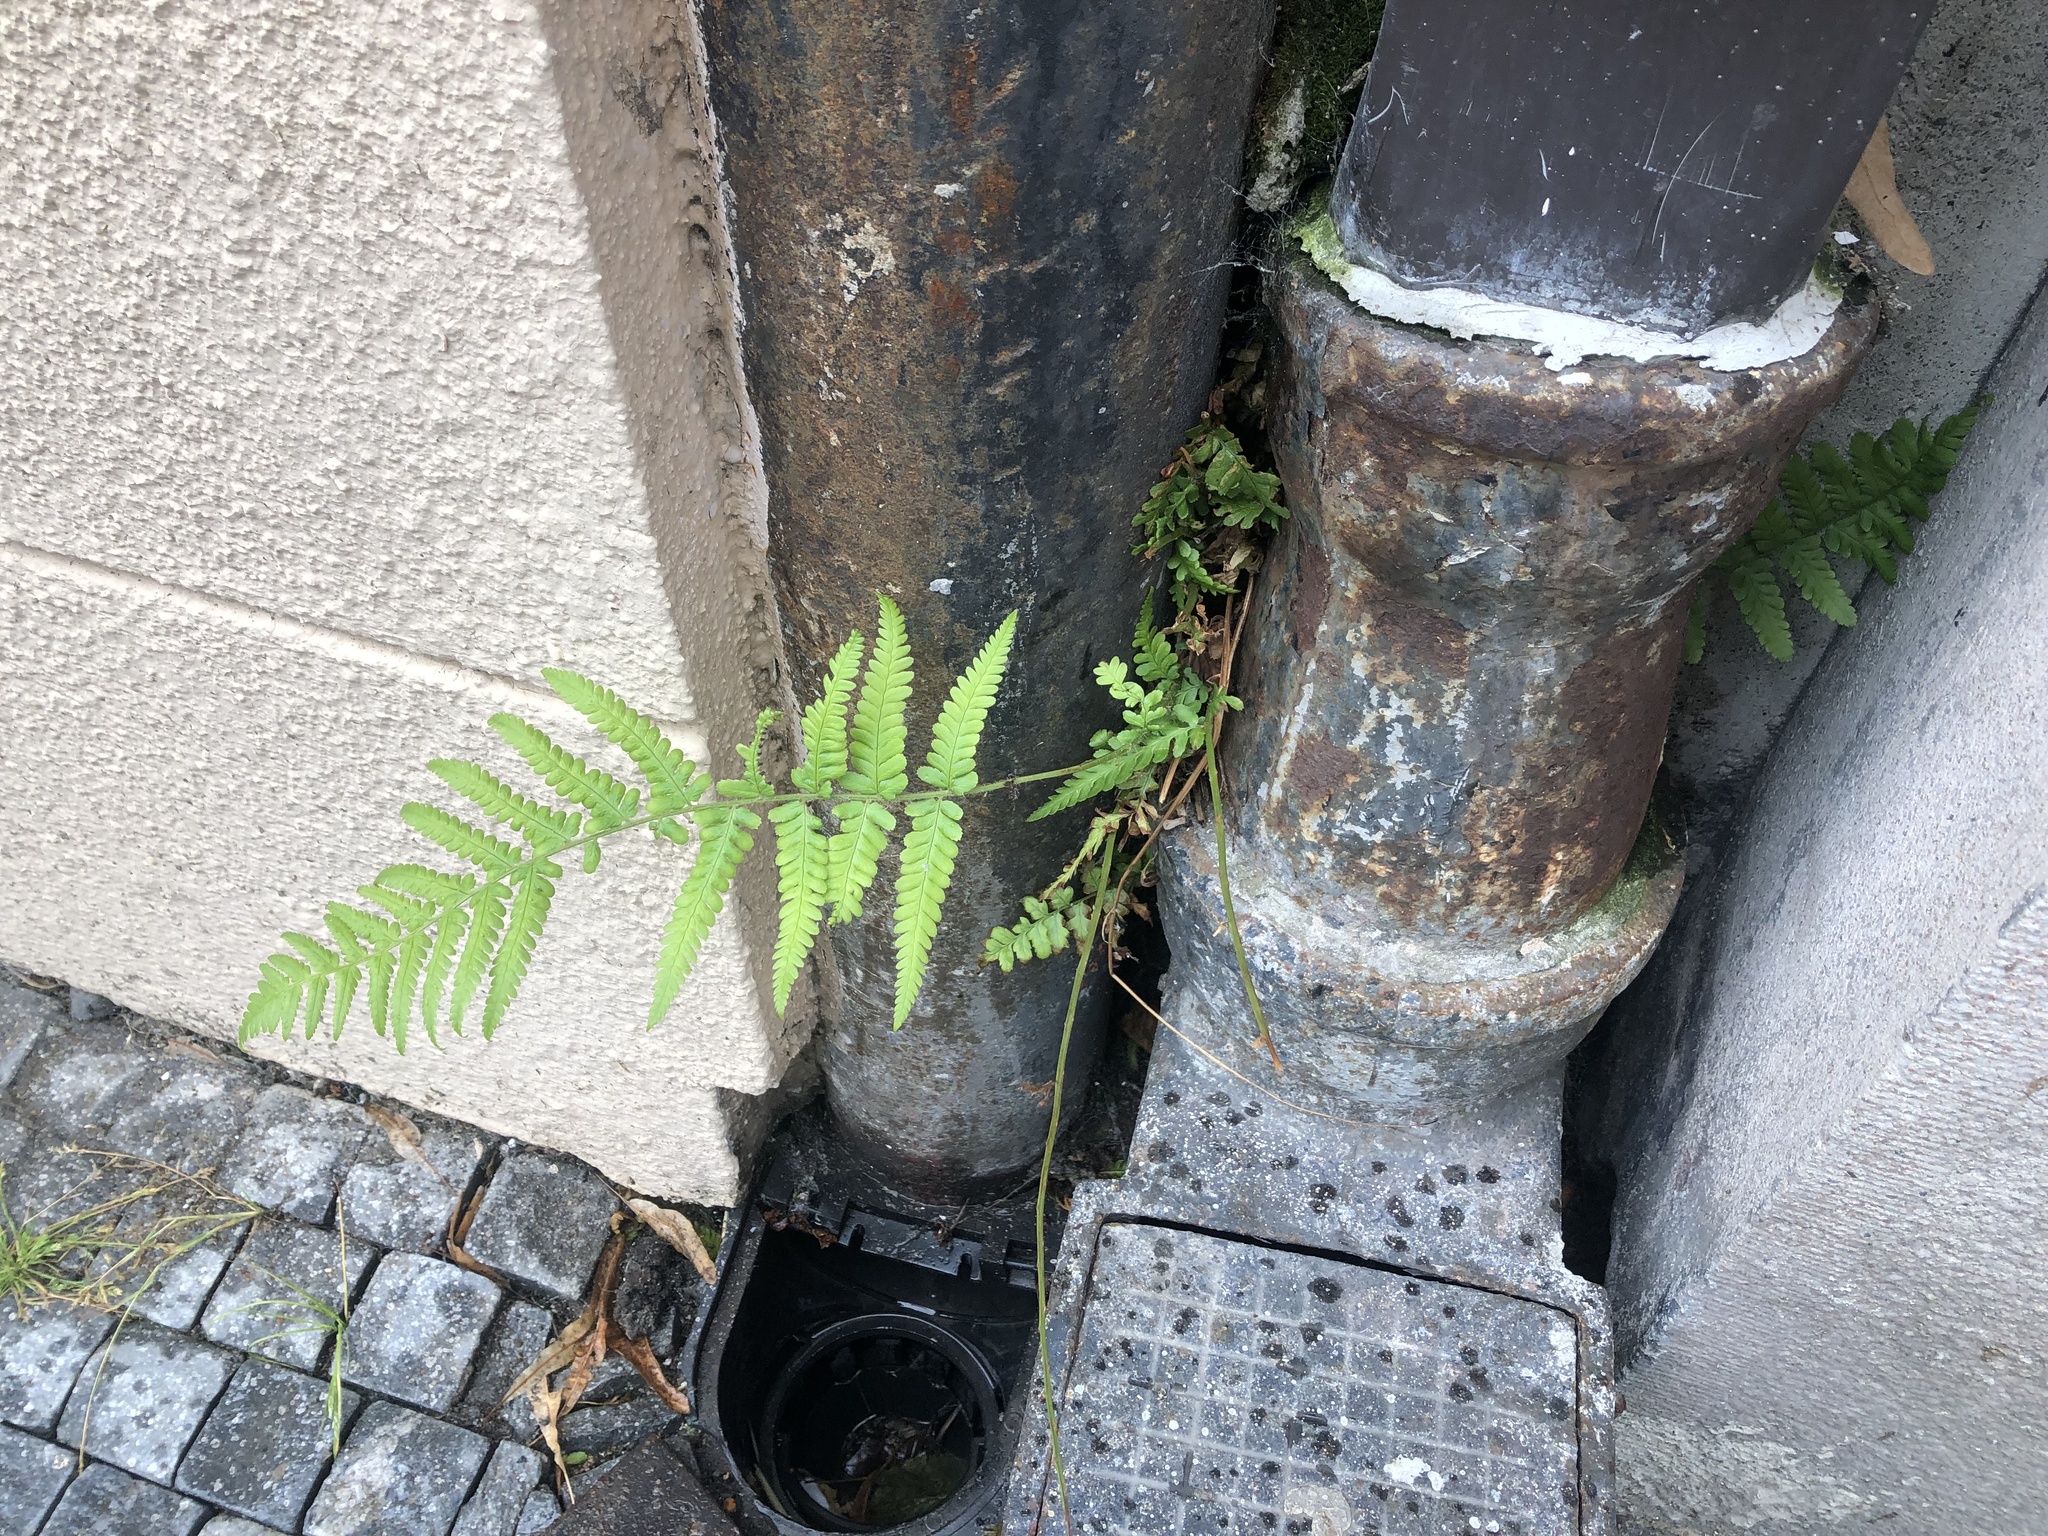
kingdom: Plantae
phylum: Tracheophyta
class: Polypodiopsida
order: Polypodiales
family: Dryopteridaceae
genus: Dryopteris
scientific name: Dryopteris filix-mas
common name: Male fern
